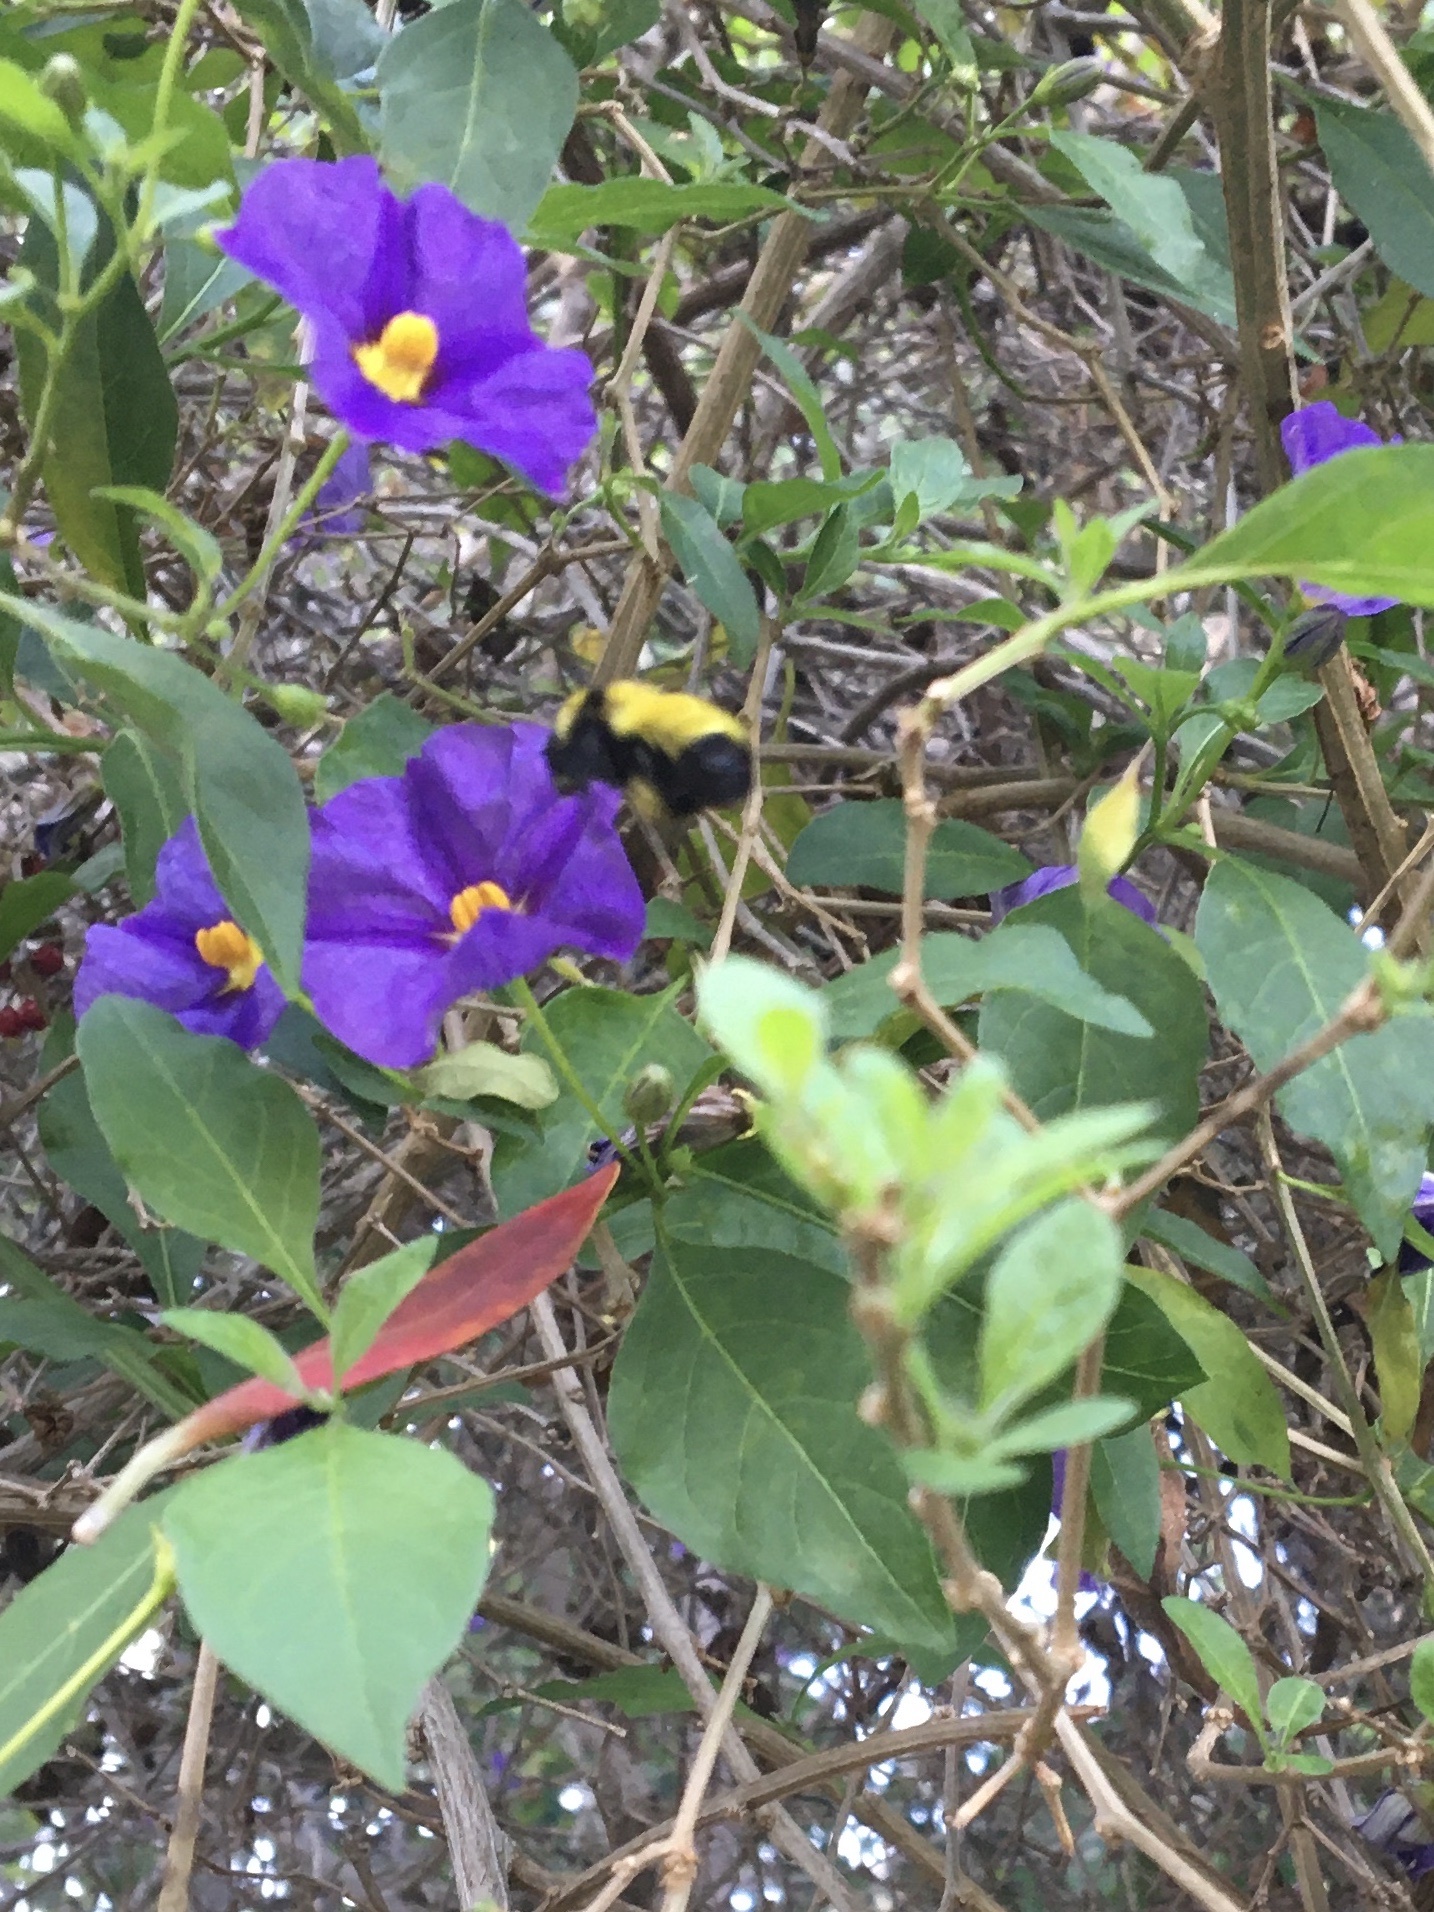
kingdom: Animalia
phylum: Arthropoda
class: Insecta
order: Hymenoptera
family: Apidae
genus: Bombus
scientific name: Bombus sonorus
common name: Sonoran bumble bee
